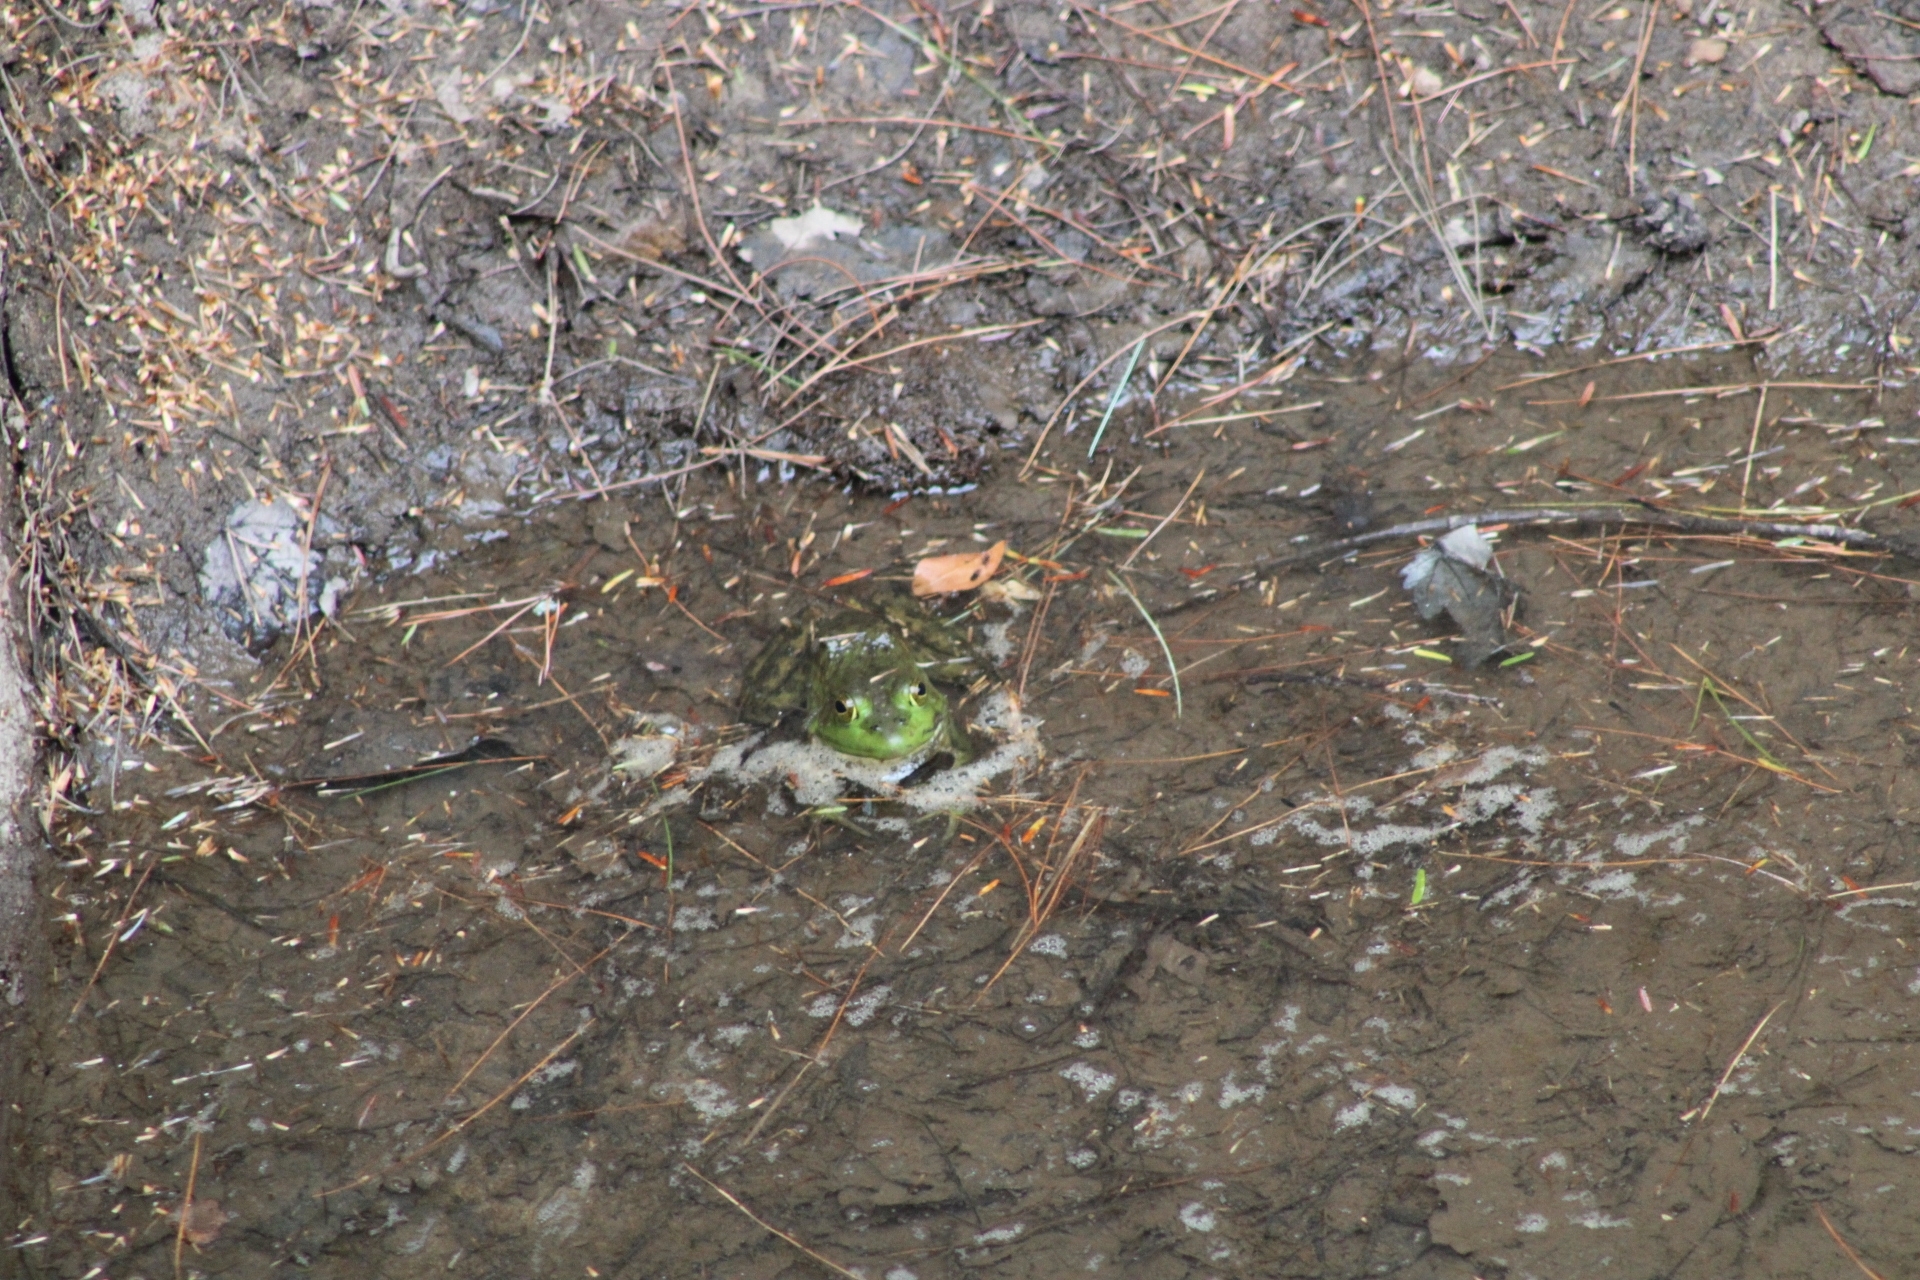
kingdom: Animalia
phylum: Chordata
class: Amphibia
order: Anura
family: Ranidae
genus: Lithobates
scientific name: Lithobates catesbeianus
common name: American bullfrog
